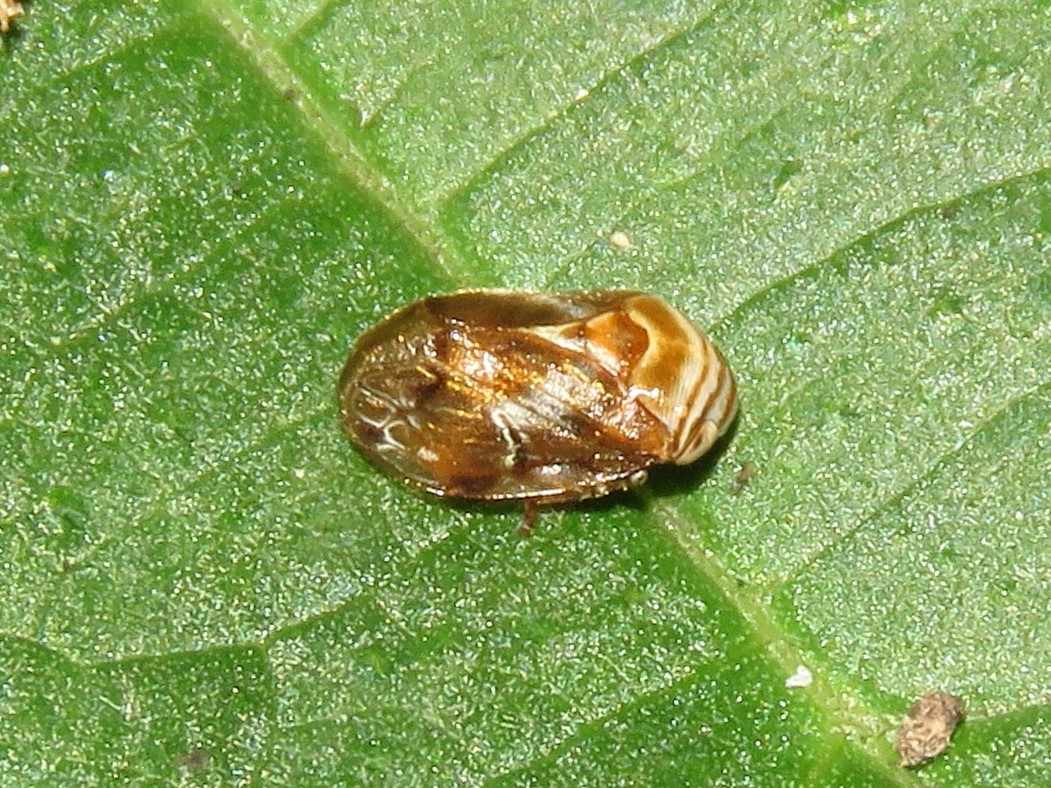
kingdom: Animalia
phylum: Arthropoda
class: Insecta
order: Hemiptera
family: Clastopteridae
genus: Clastoptera
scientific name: Clastoptera obtusa
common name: Alder spittlebug
